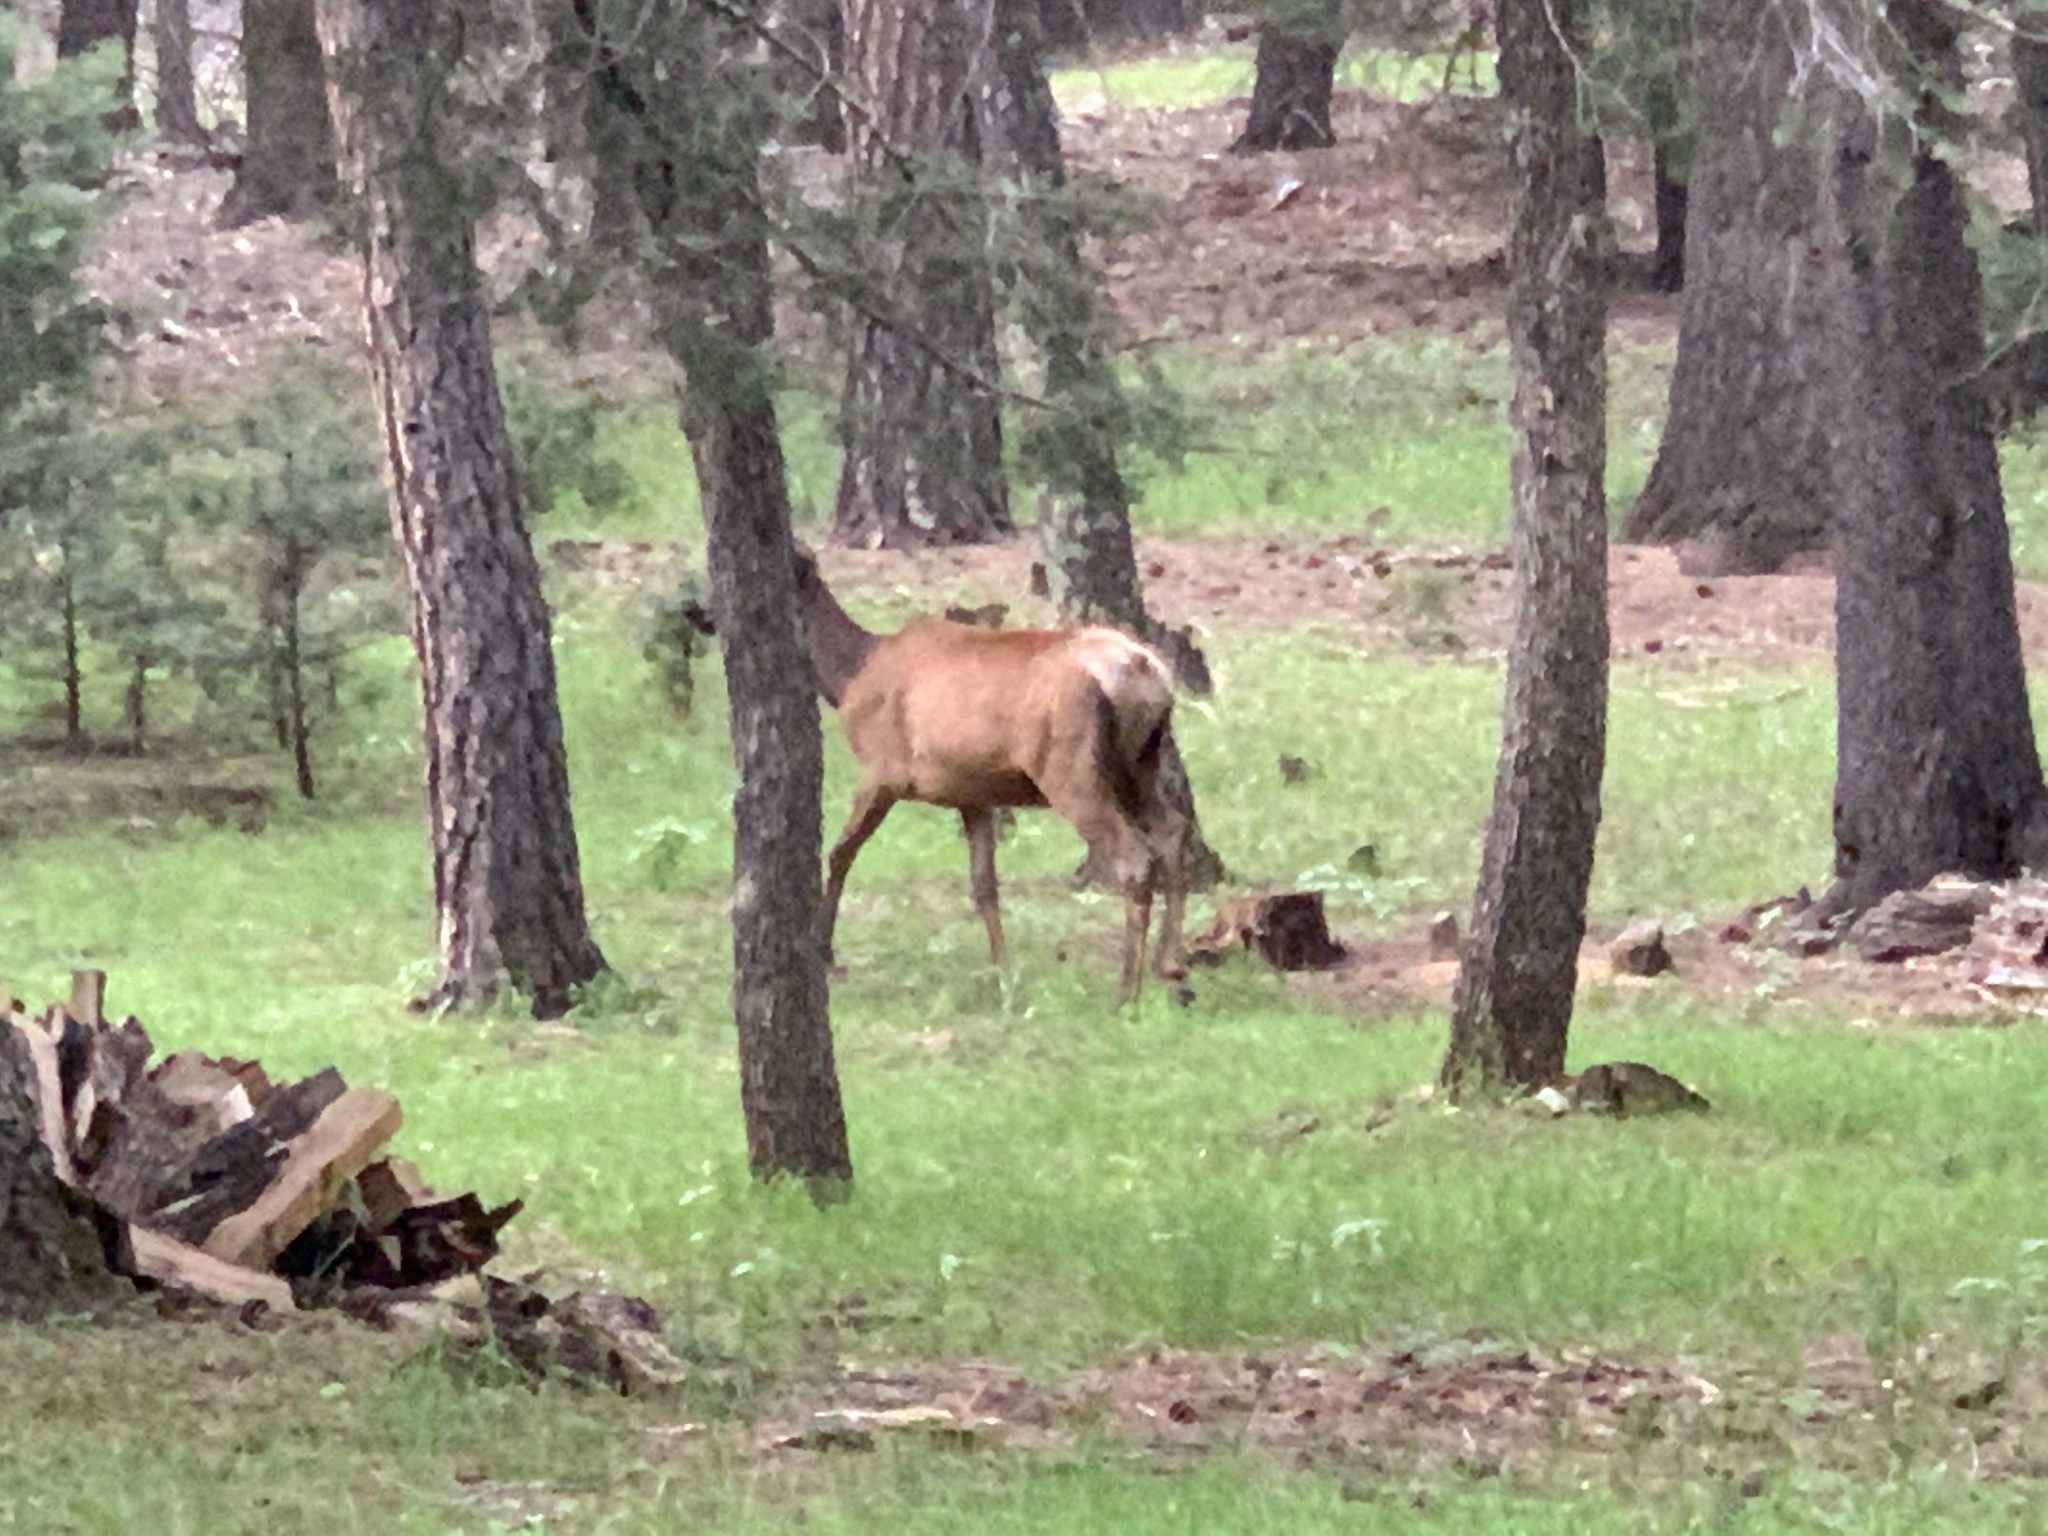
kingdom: Animalia
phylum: Chordata
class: Mammalia
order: Artiodactyla
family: Cervidae
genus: Cervus
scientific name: Cervus elaphus
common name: Red deer
